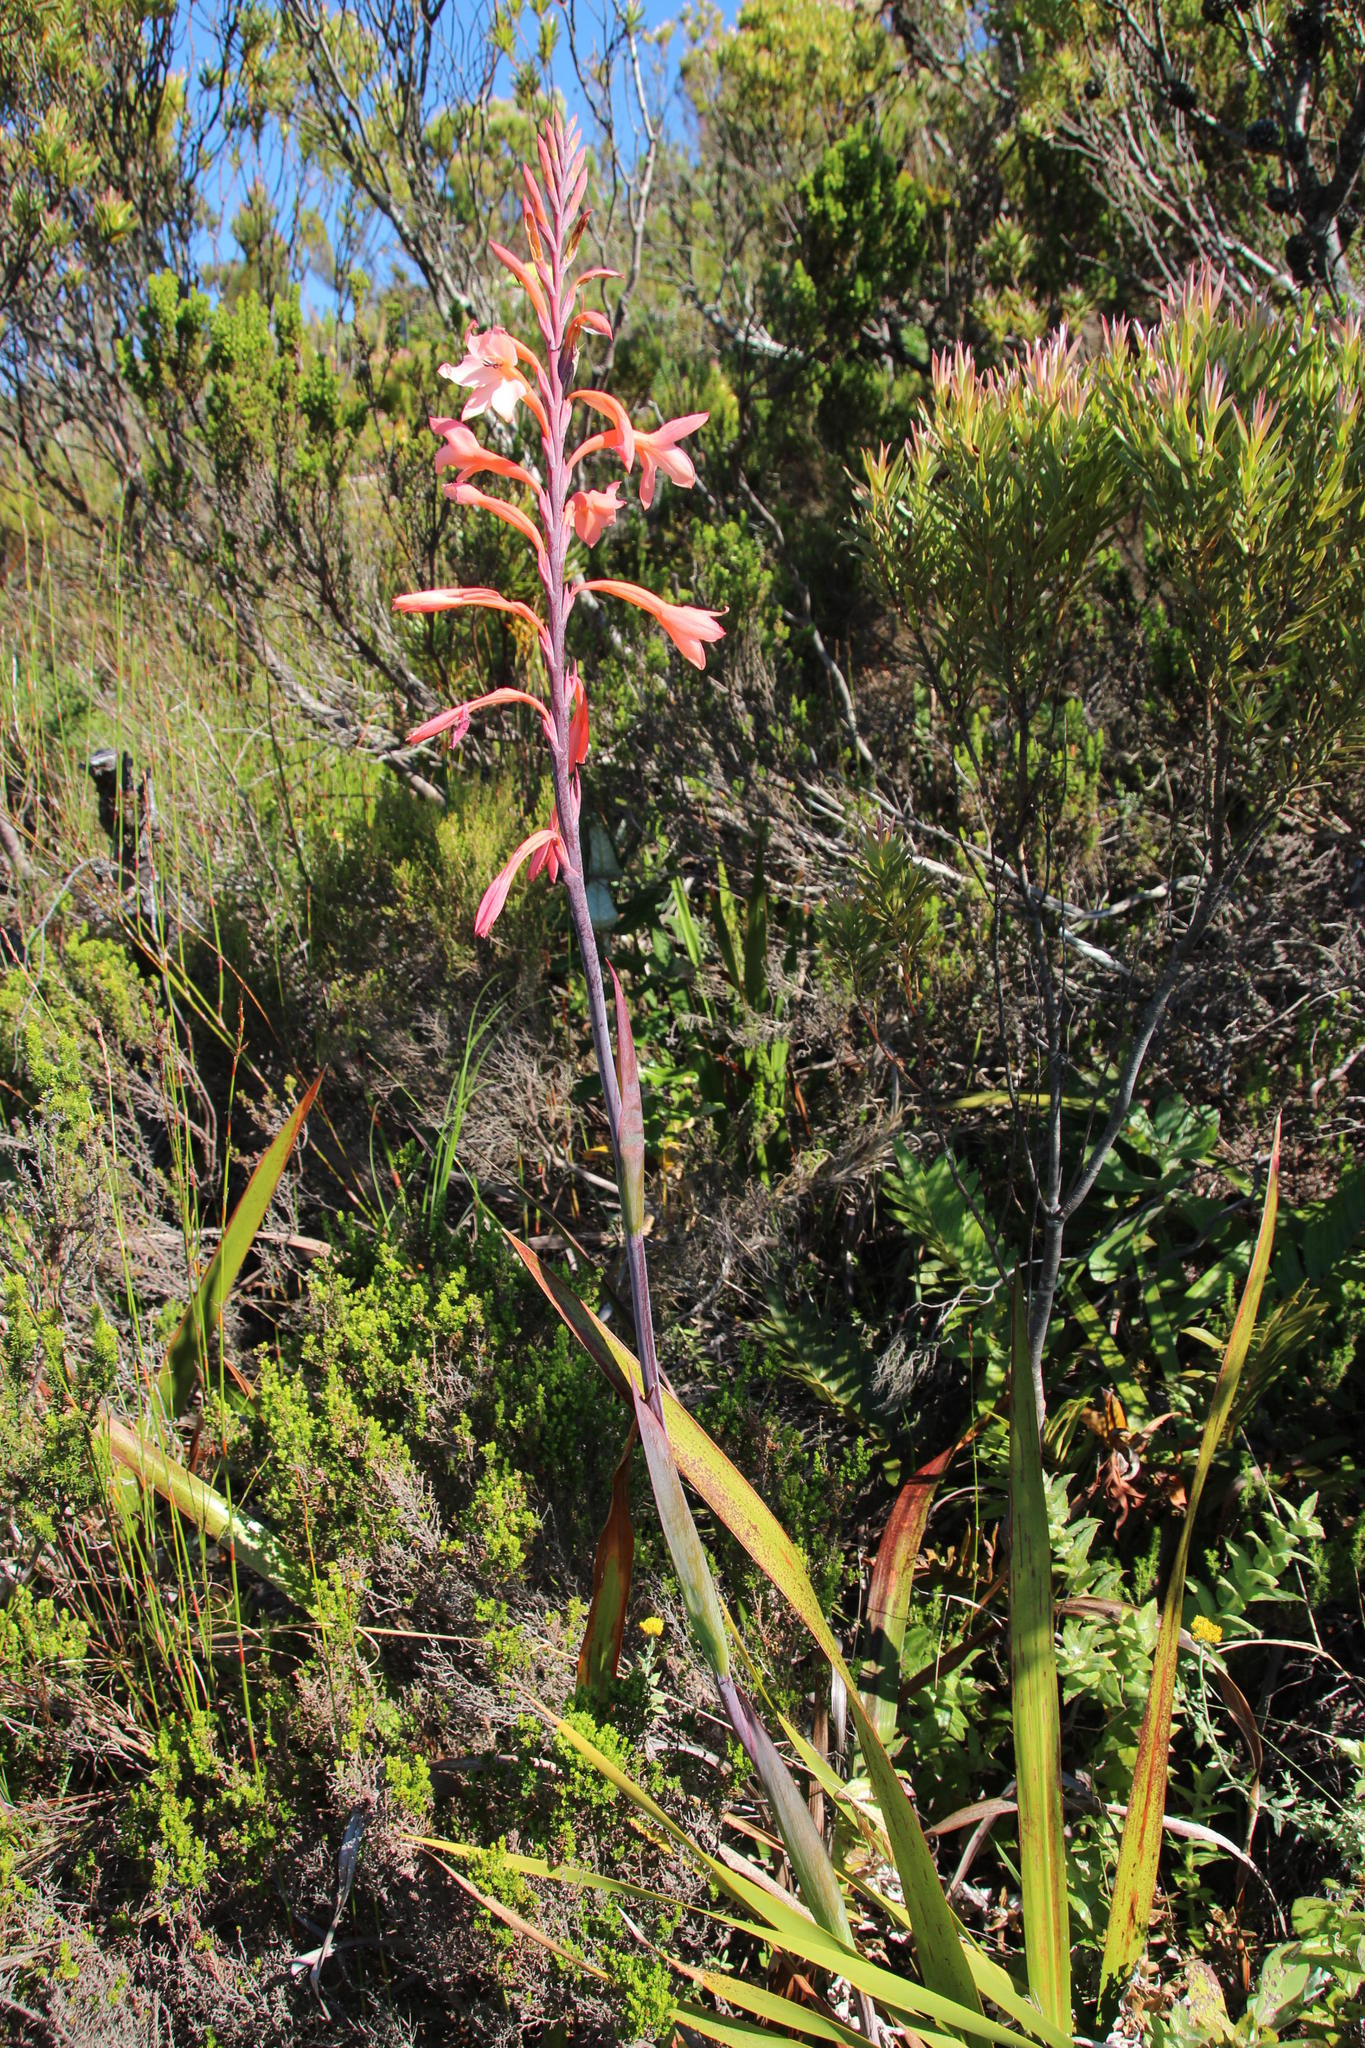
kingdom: Plantae
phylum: Tracheophyta
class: Liliopsida
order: Asparagales
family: Iridaceae
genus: Watsonia
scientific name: Watsonia tabularis
